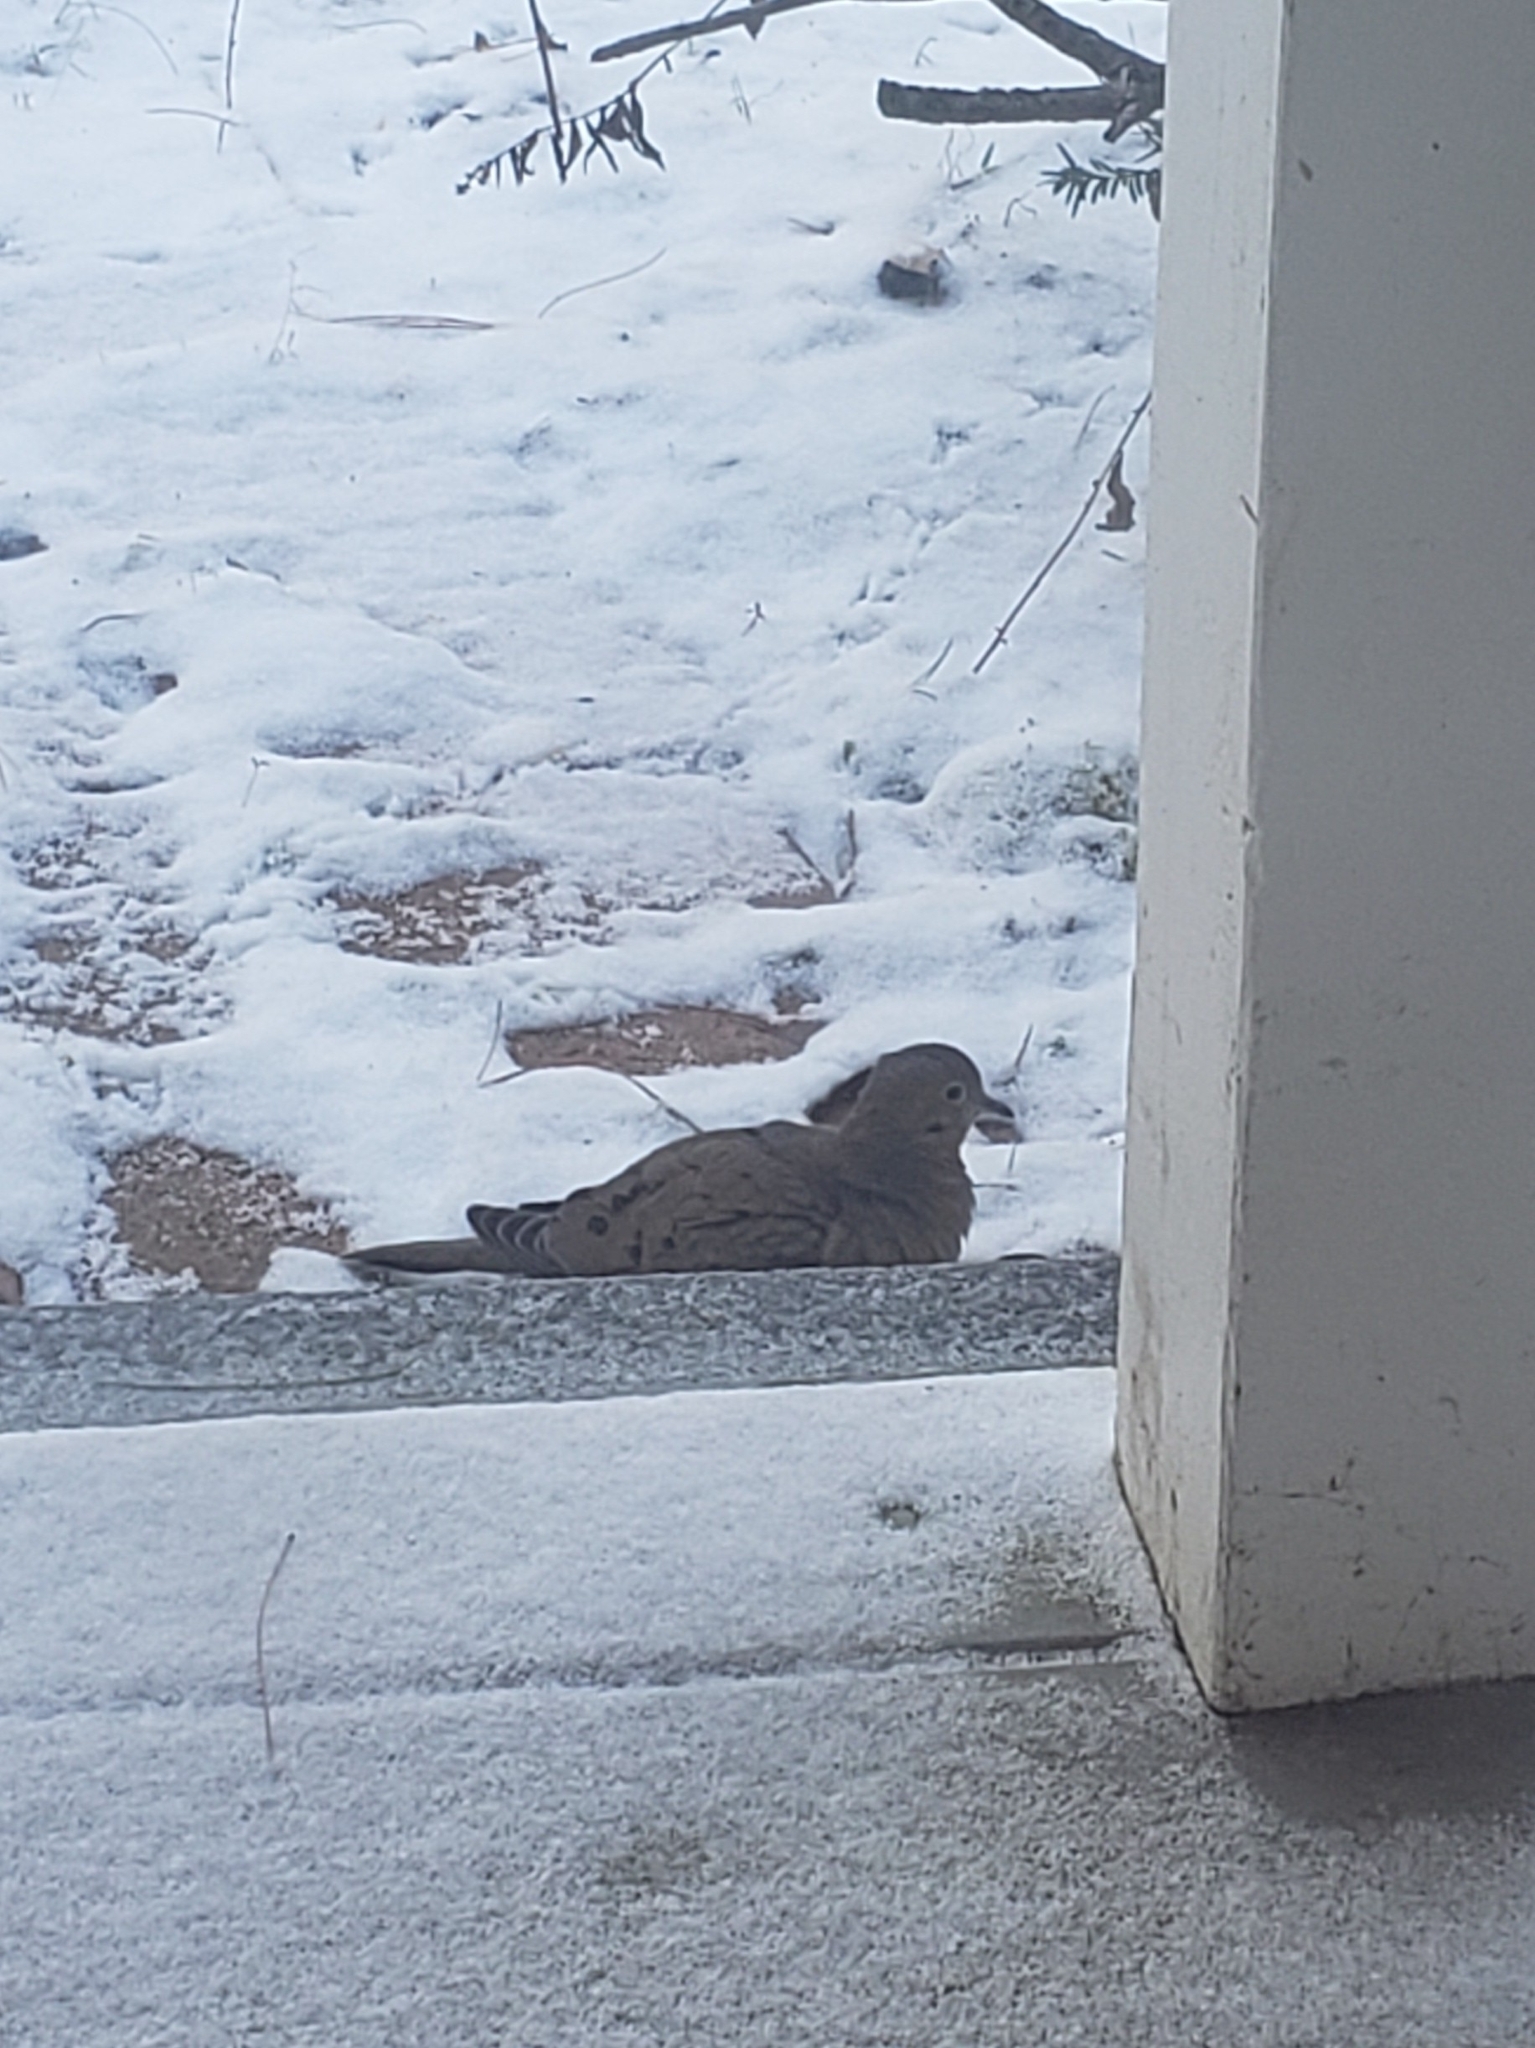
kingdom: Animalia
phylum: Chordata
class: Aves
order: Columbiformes
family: Columbidae
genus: Zenaida
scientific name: Zenaida macroura
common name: Mourning dove
